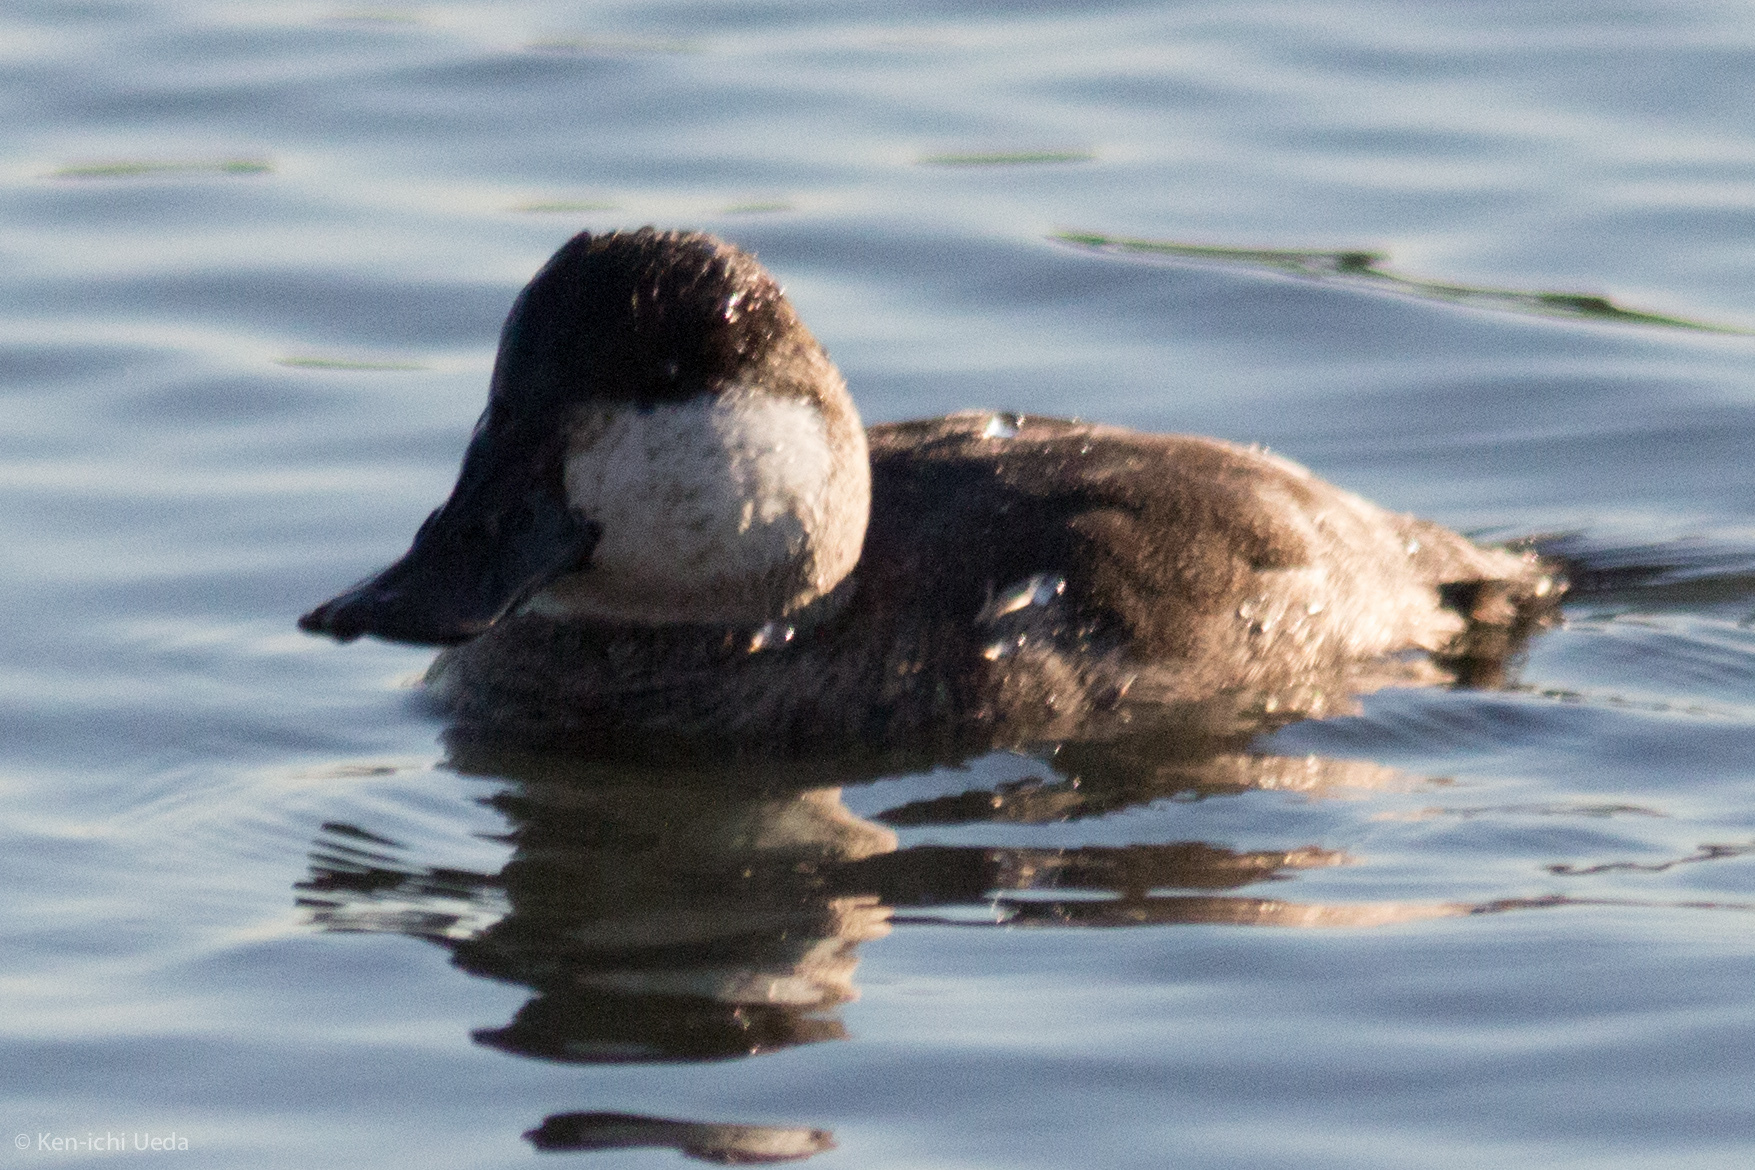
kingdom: Animalia
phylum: Chordata
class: Aves
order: Anseriformes
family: Anatidae
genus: Oxyura
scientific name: Oxyura jamaicensis
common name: Ruddy duck
